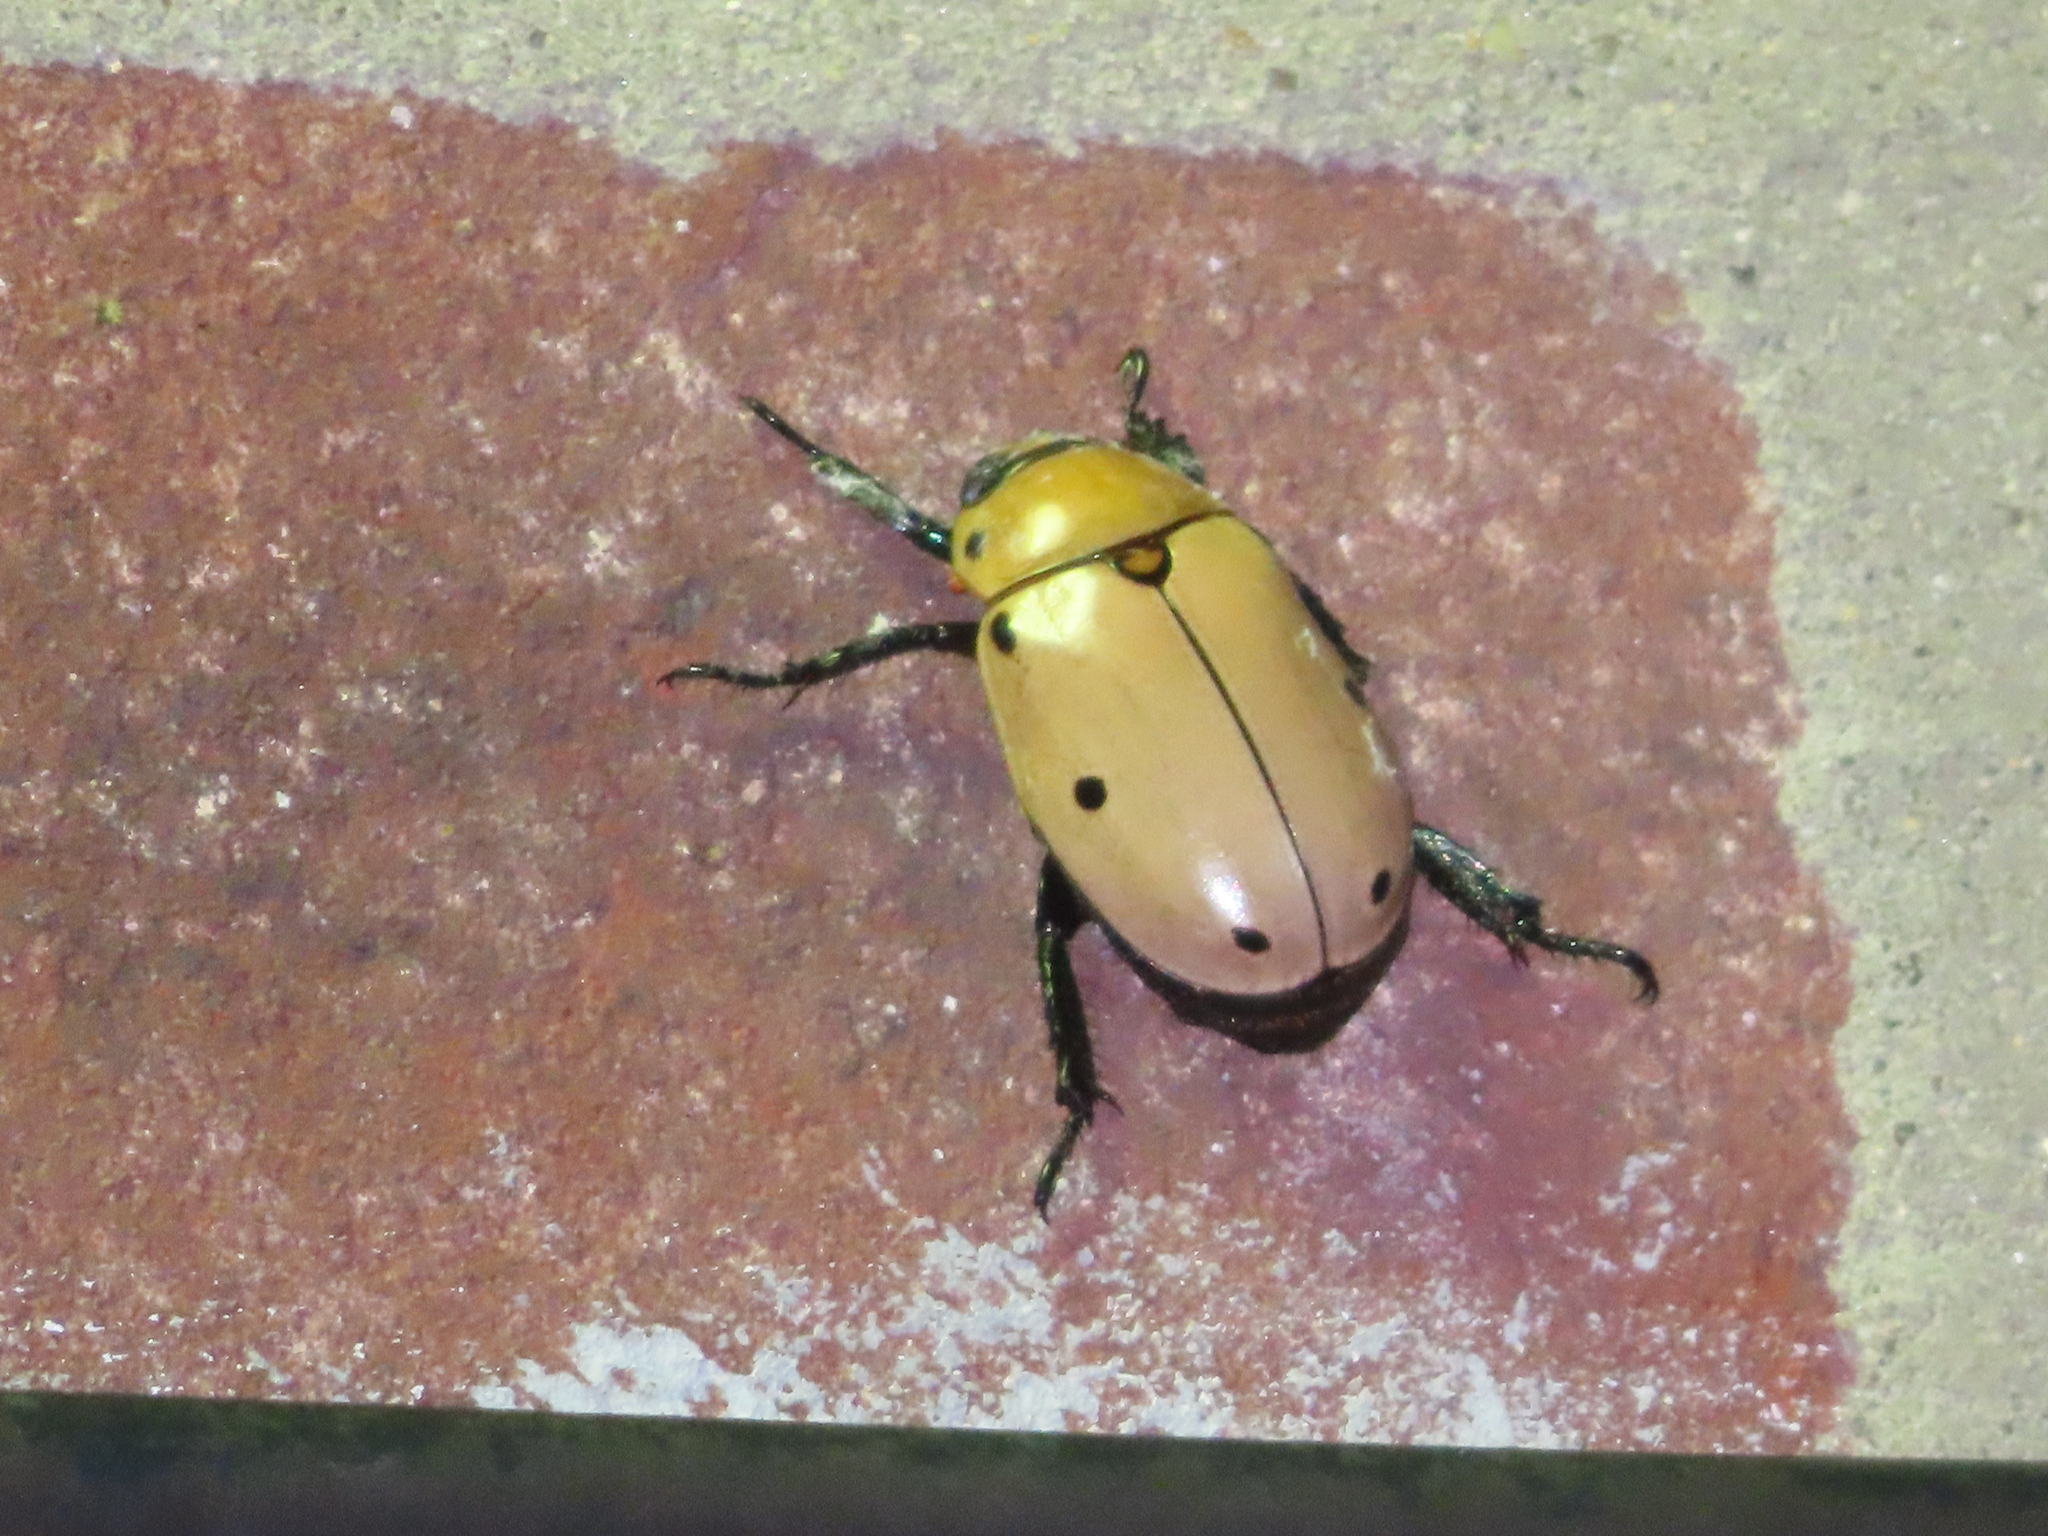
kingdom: Animalia
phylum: Arthropoda
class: Insecta
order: Coleoptera
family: Scarabaeidae
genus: Pelidnota
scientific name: Pelidnota punctata
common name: Grapevine beetle
